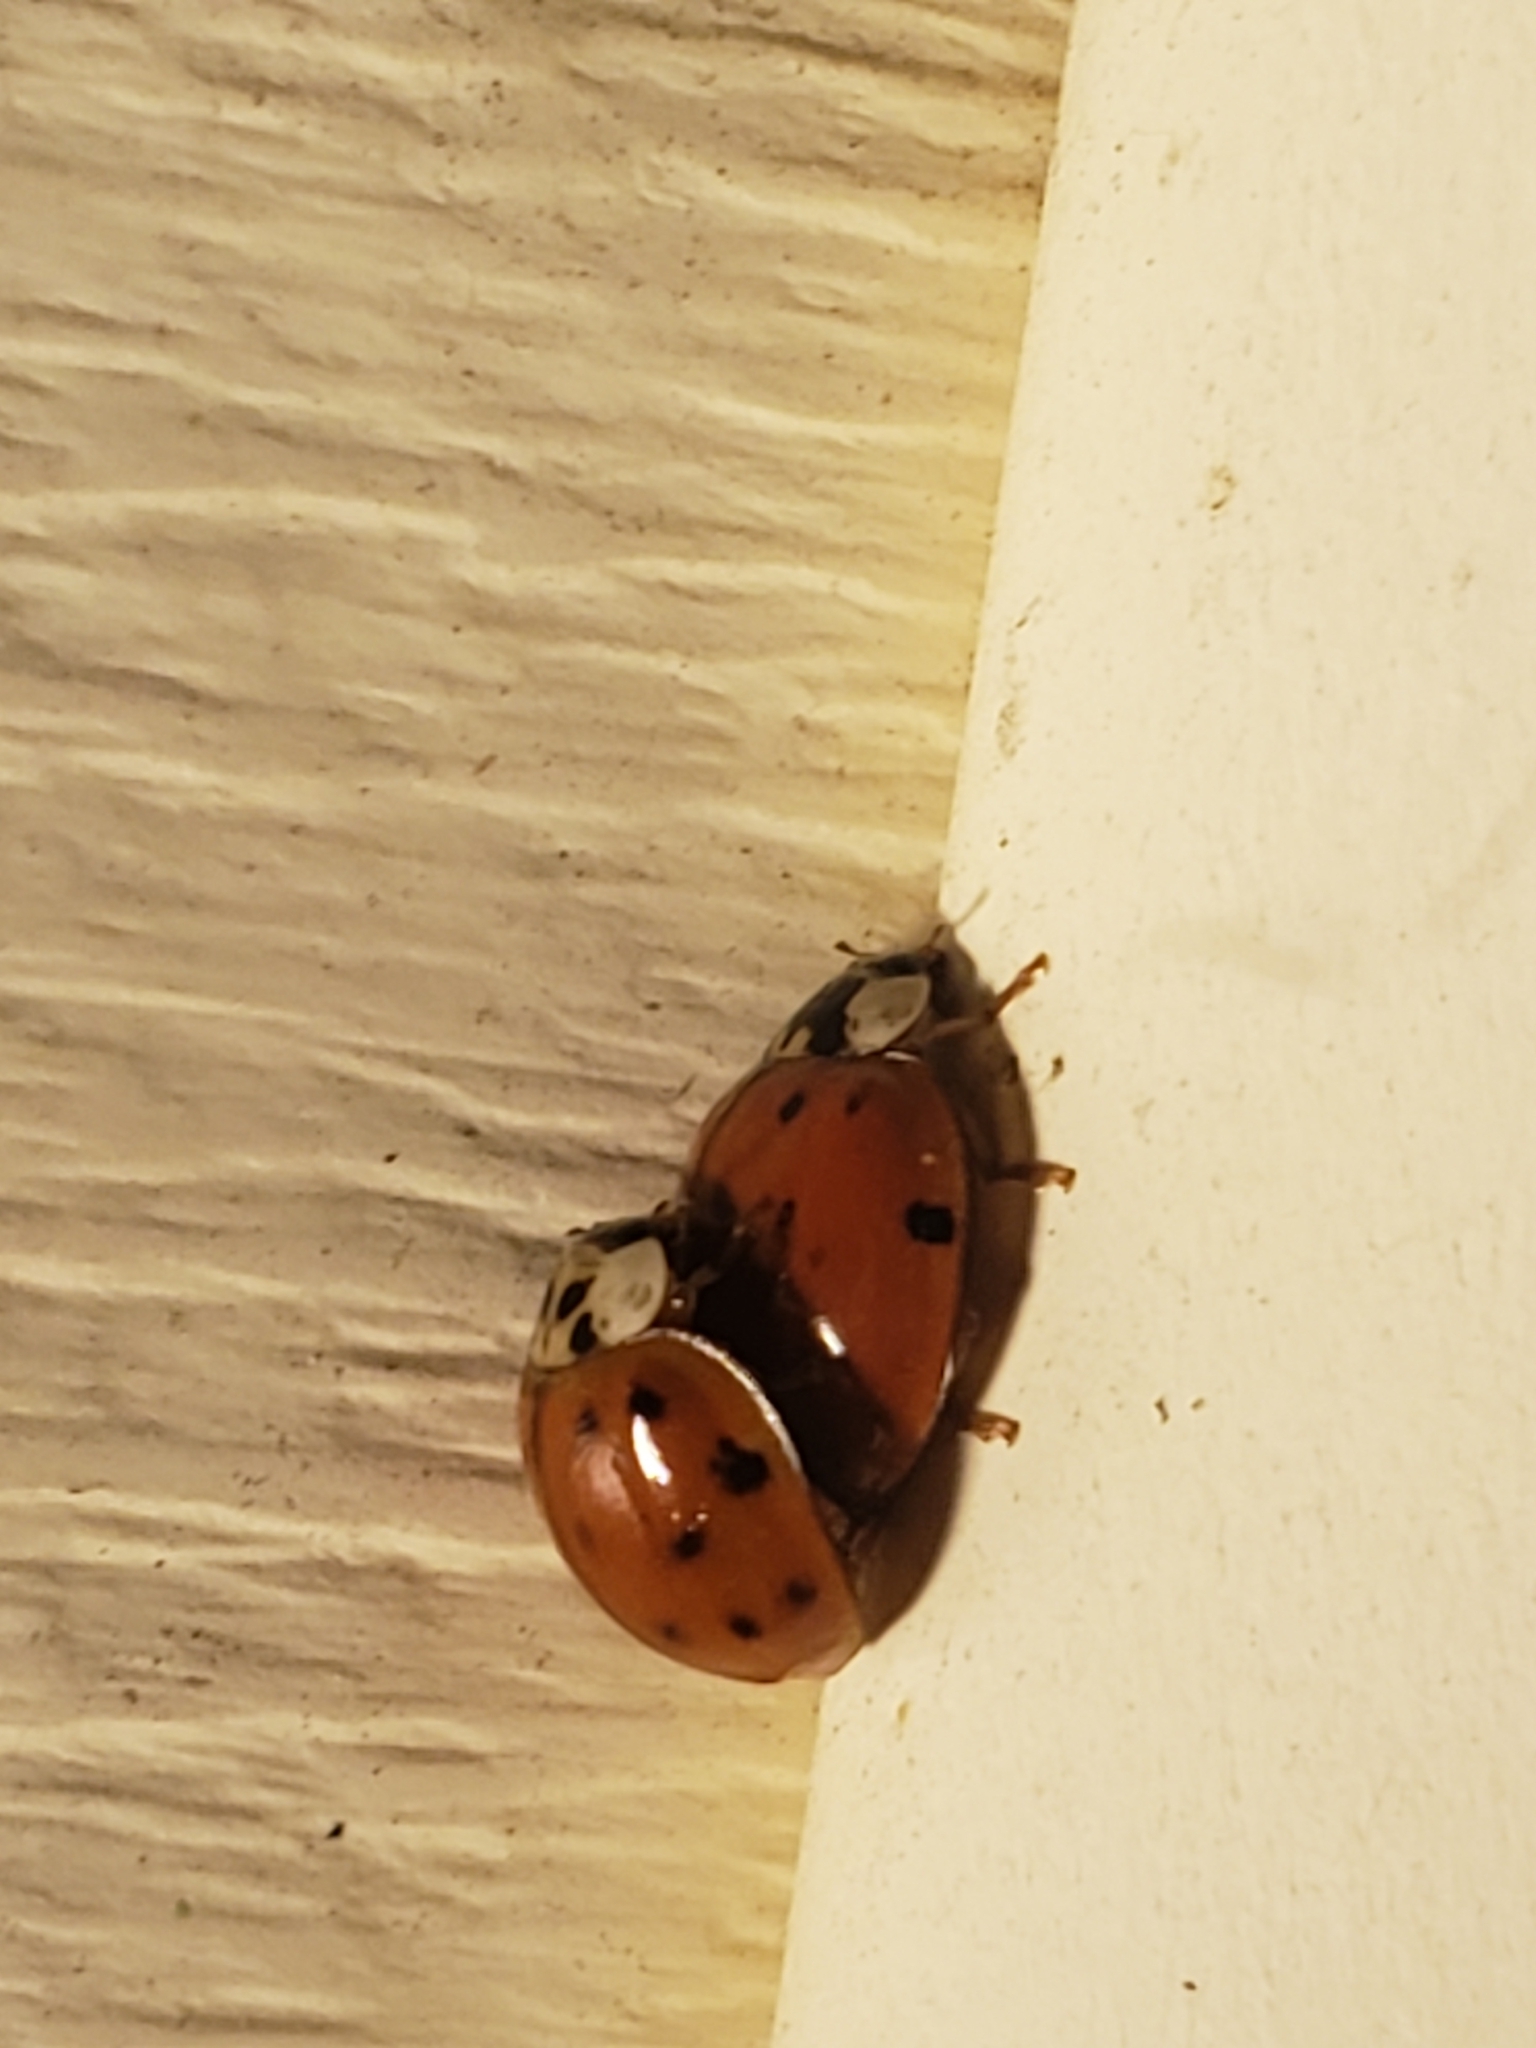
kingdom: Animalia
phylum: Arthropoda
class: Insecta
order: Coleoptera
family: Coccinellidae
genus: Harmonia
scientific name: Harmonia axyridis
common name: Harlequin ladybird
